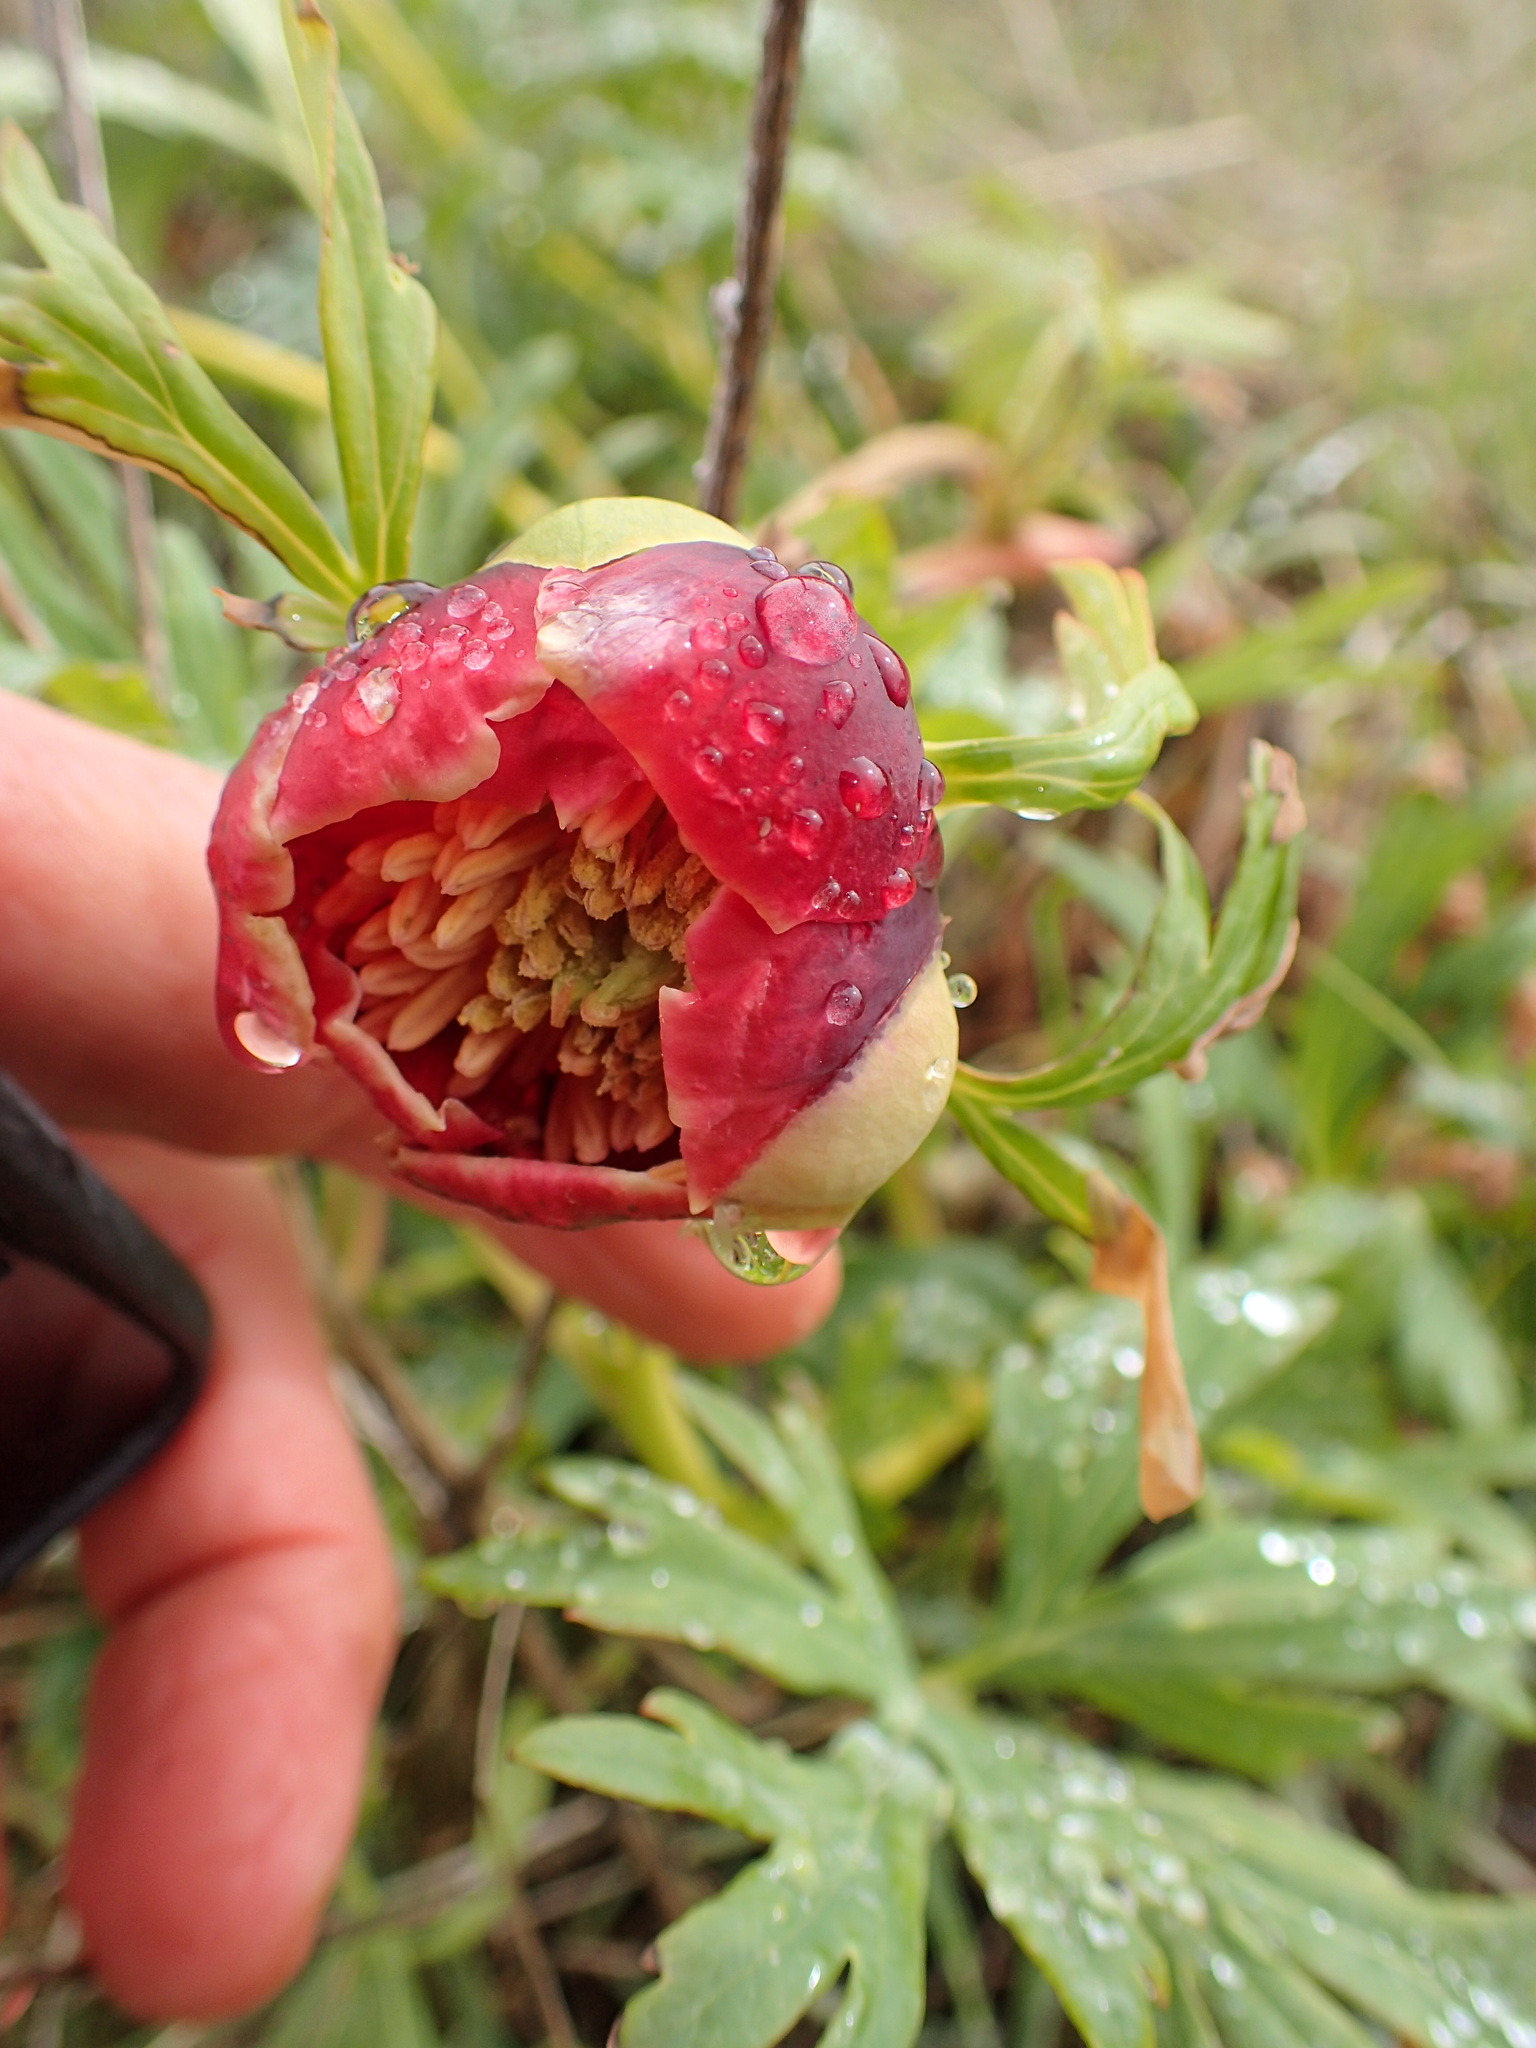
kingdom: Plantae
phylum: Tracheophyta
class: Magnoliopsida
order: Saxifragales
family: Paeoniaceae
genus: Paeonia
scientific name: Paeonia californica
